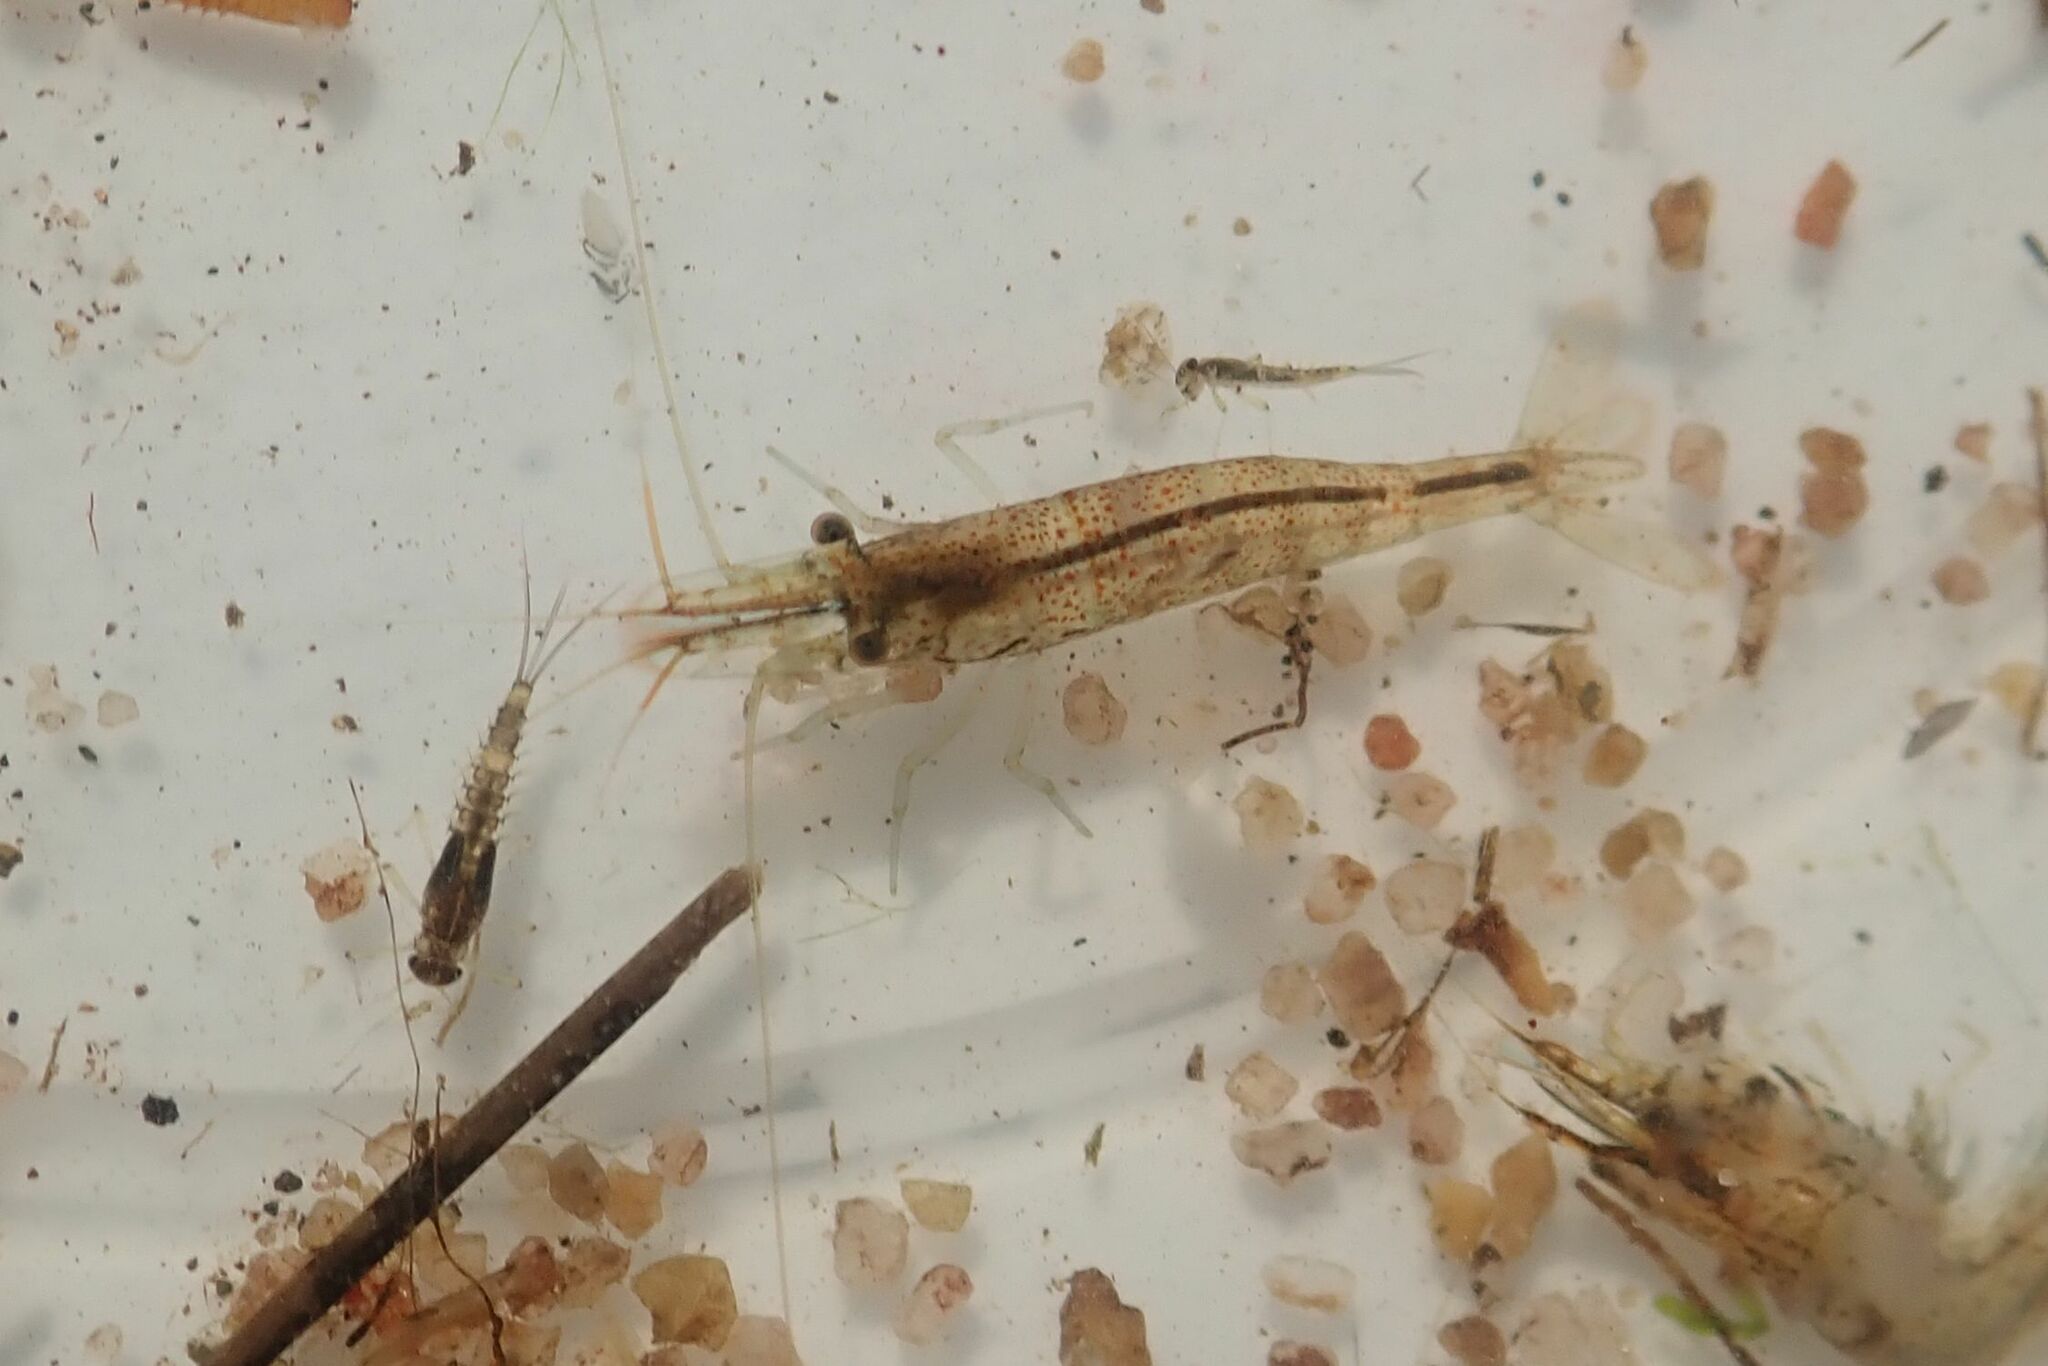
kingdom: Animalia
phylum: Arthropoda
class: Malacostraca
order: Decapoda
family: Atyidae
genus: Caridina
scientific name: Caridina africana
